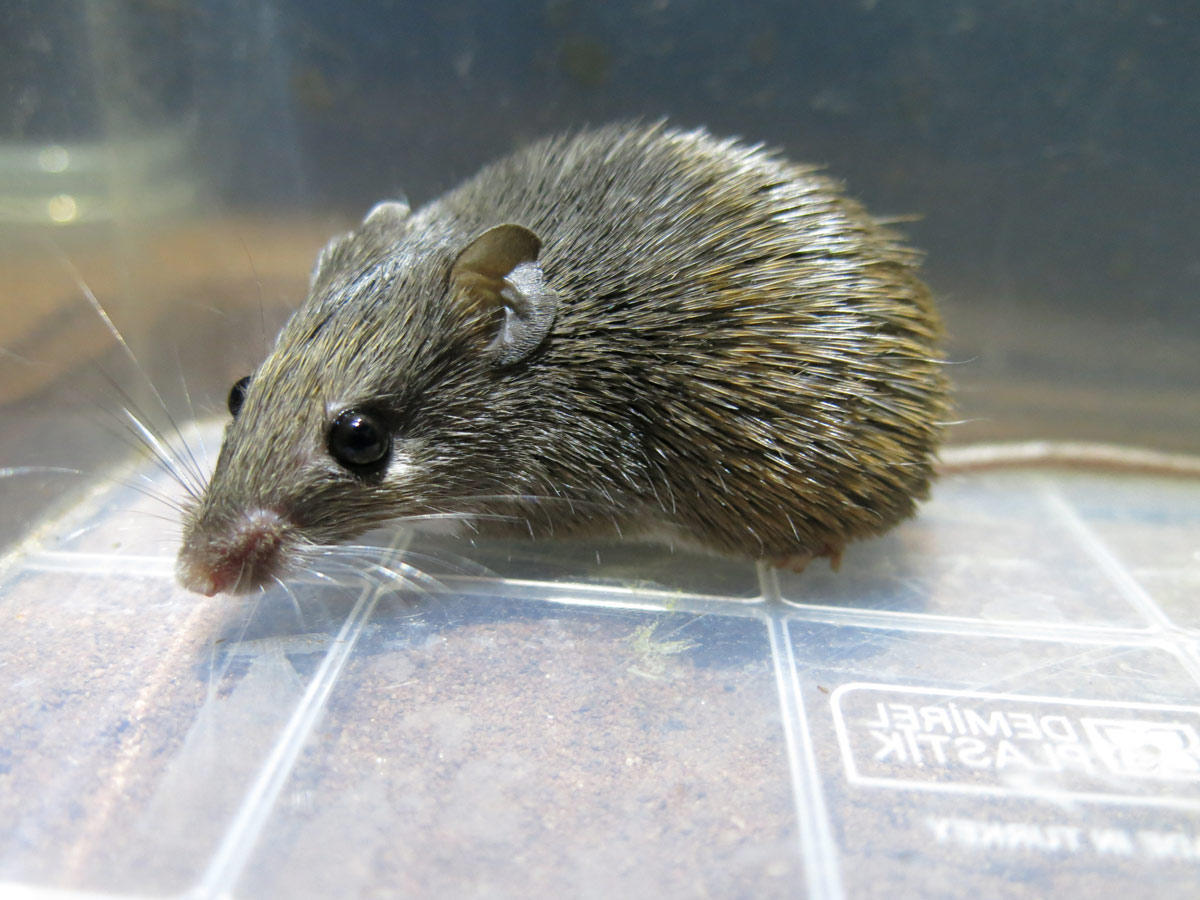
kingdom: Animalia
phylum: Chordata
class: Mammalia
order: Rodentia
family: Muridae
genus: Acomys
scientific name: Acomys selousi
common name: Selous’s spiny mouse
